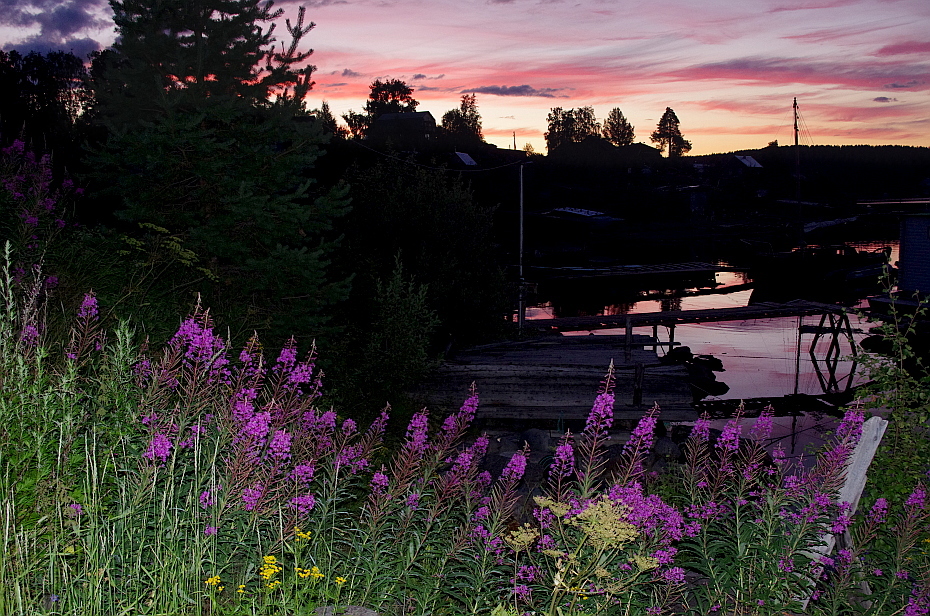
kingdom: Plantae
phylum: Tracheophyta
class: Magnoliopsida
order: Asterales
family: Asteraceae
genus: Tanacetum
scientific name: Tanacetum vulgare
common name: Common tansy
